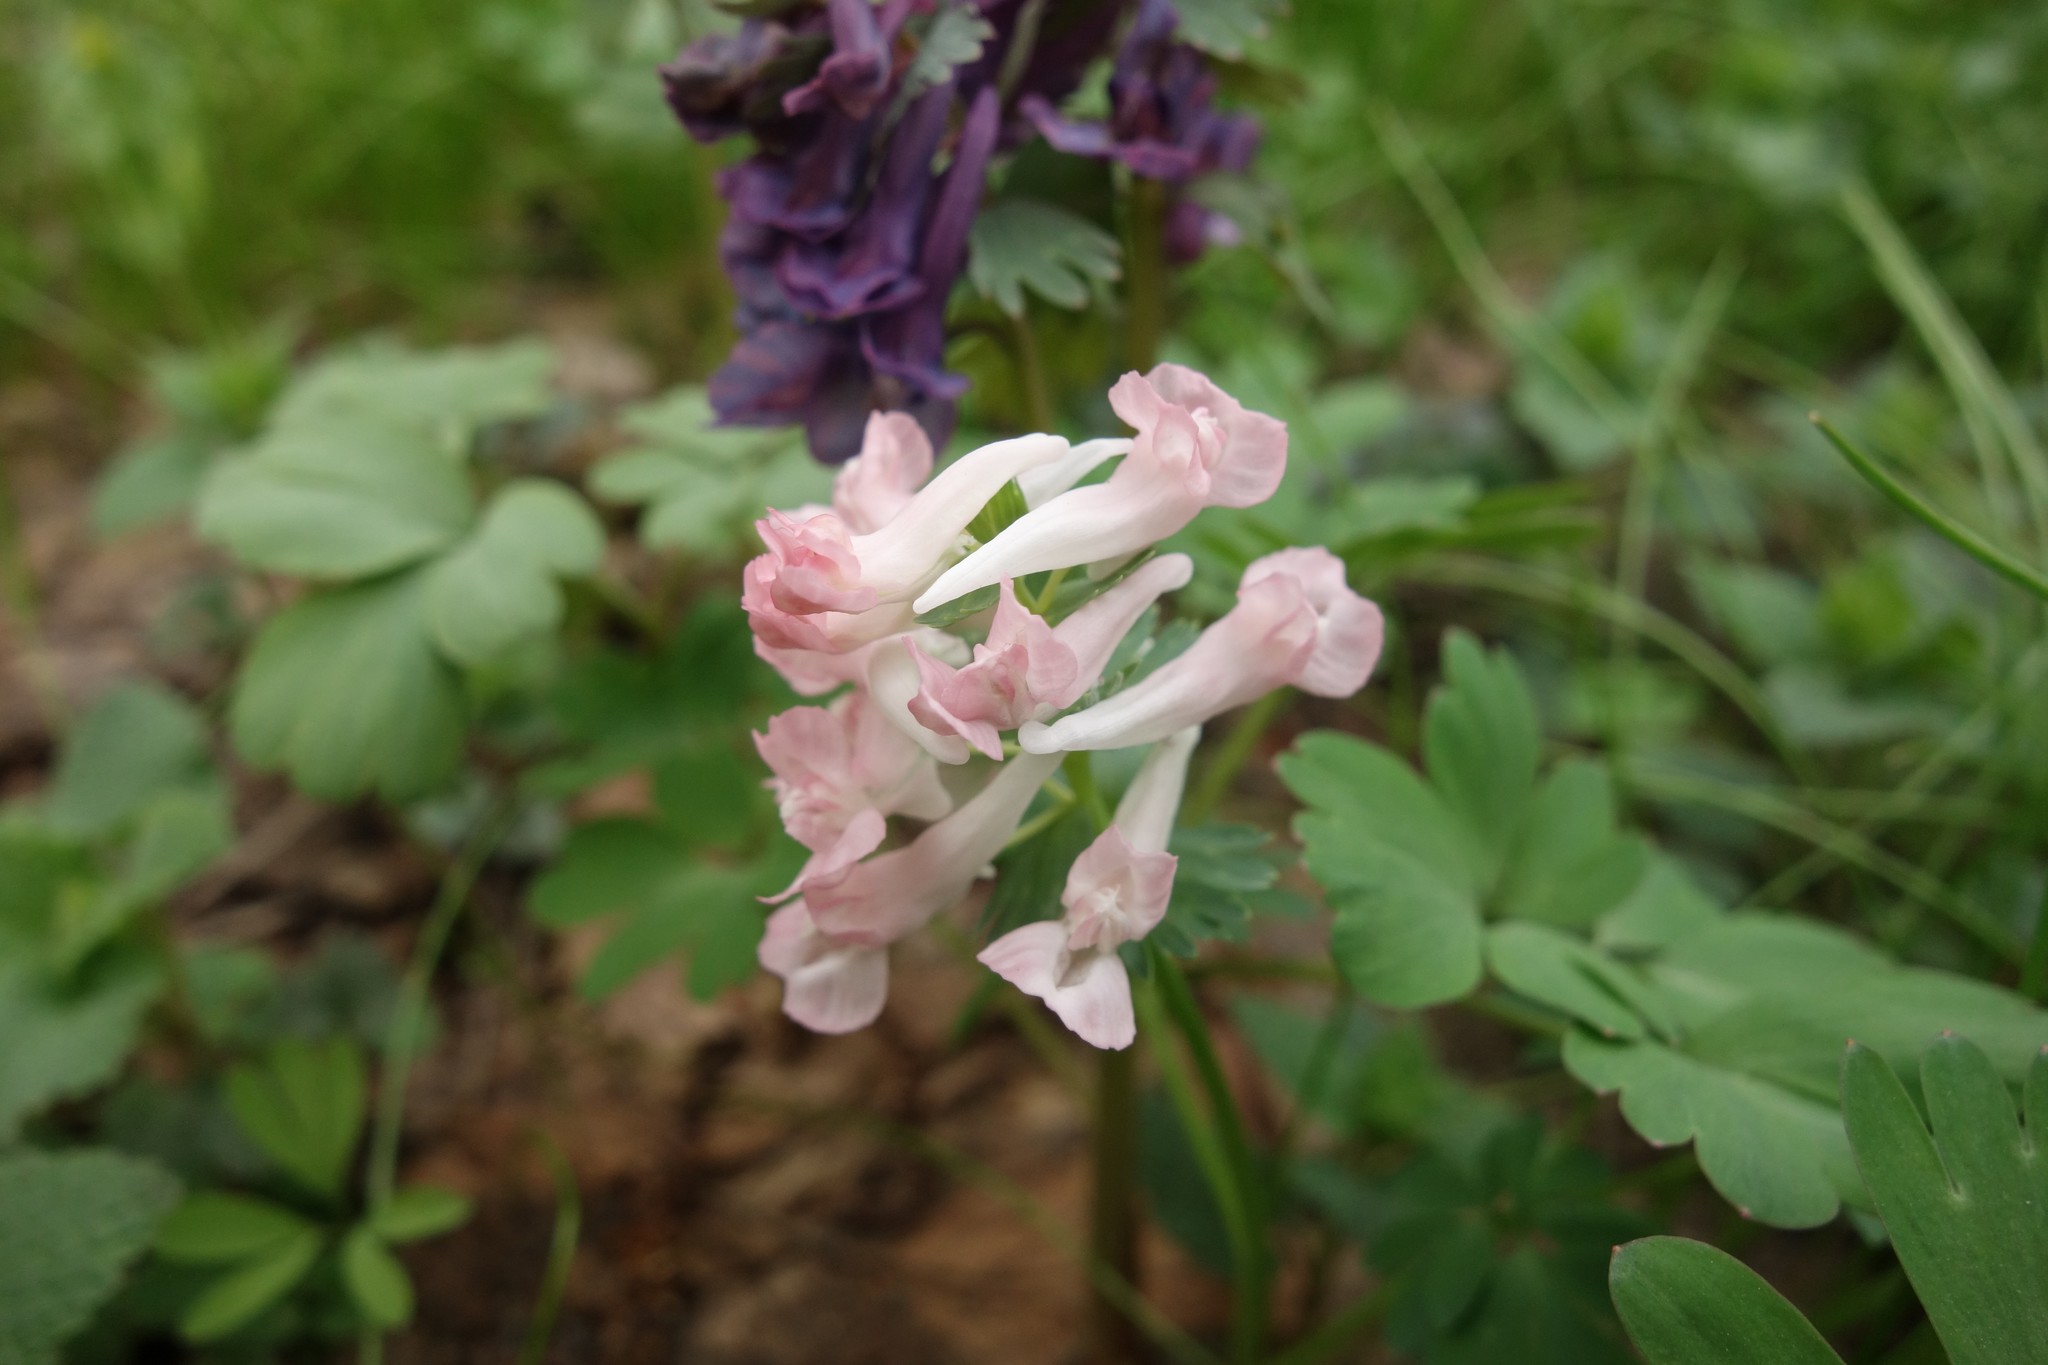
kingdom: Plantae
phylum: Tracheophyta
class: Magnoliopsida
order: Ranunculales
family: Papaveraceae
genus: Corydalis
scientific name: Corydalis solida
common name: Bird-in-a-bush
